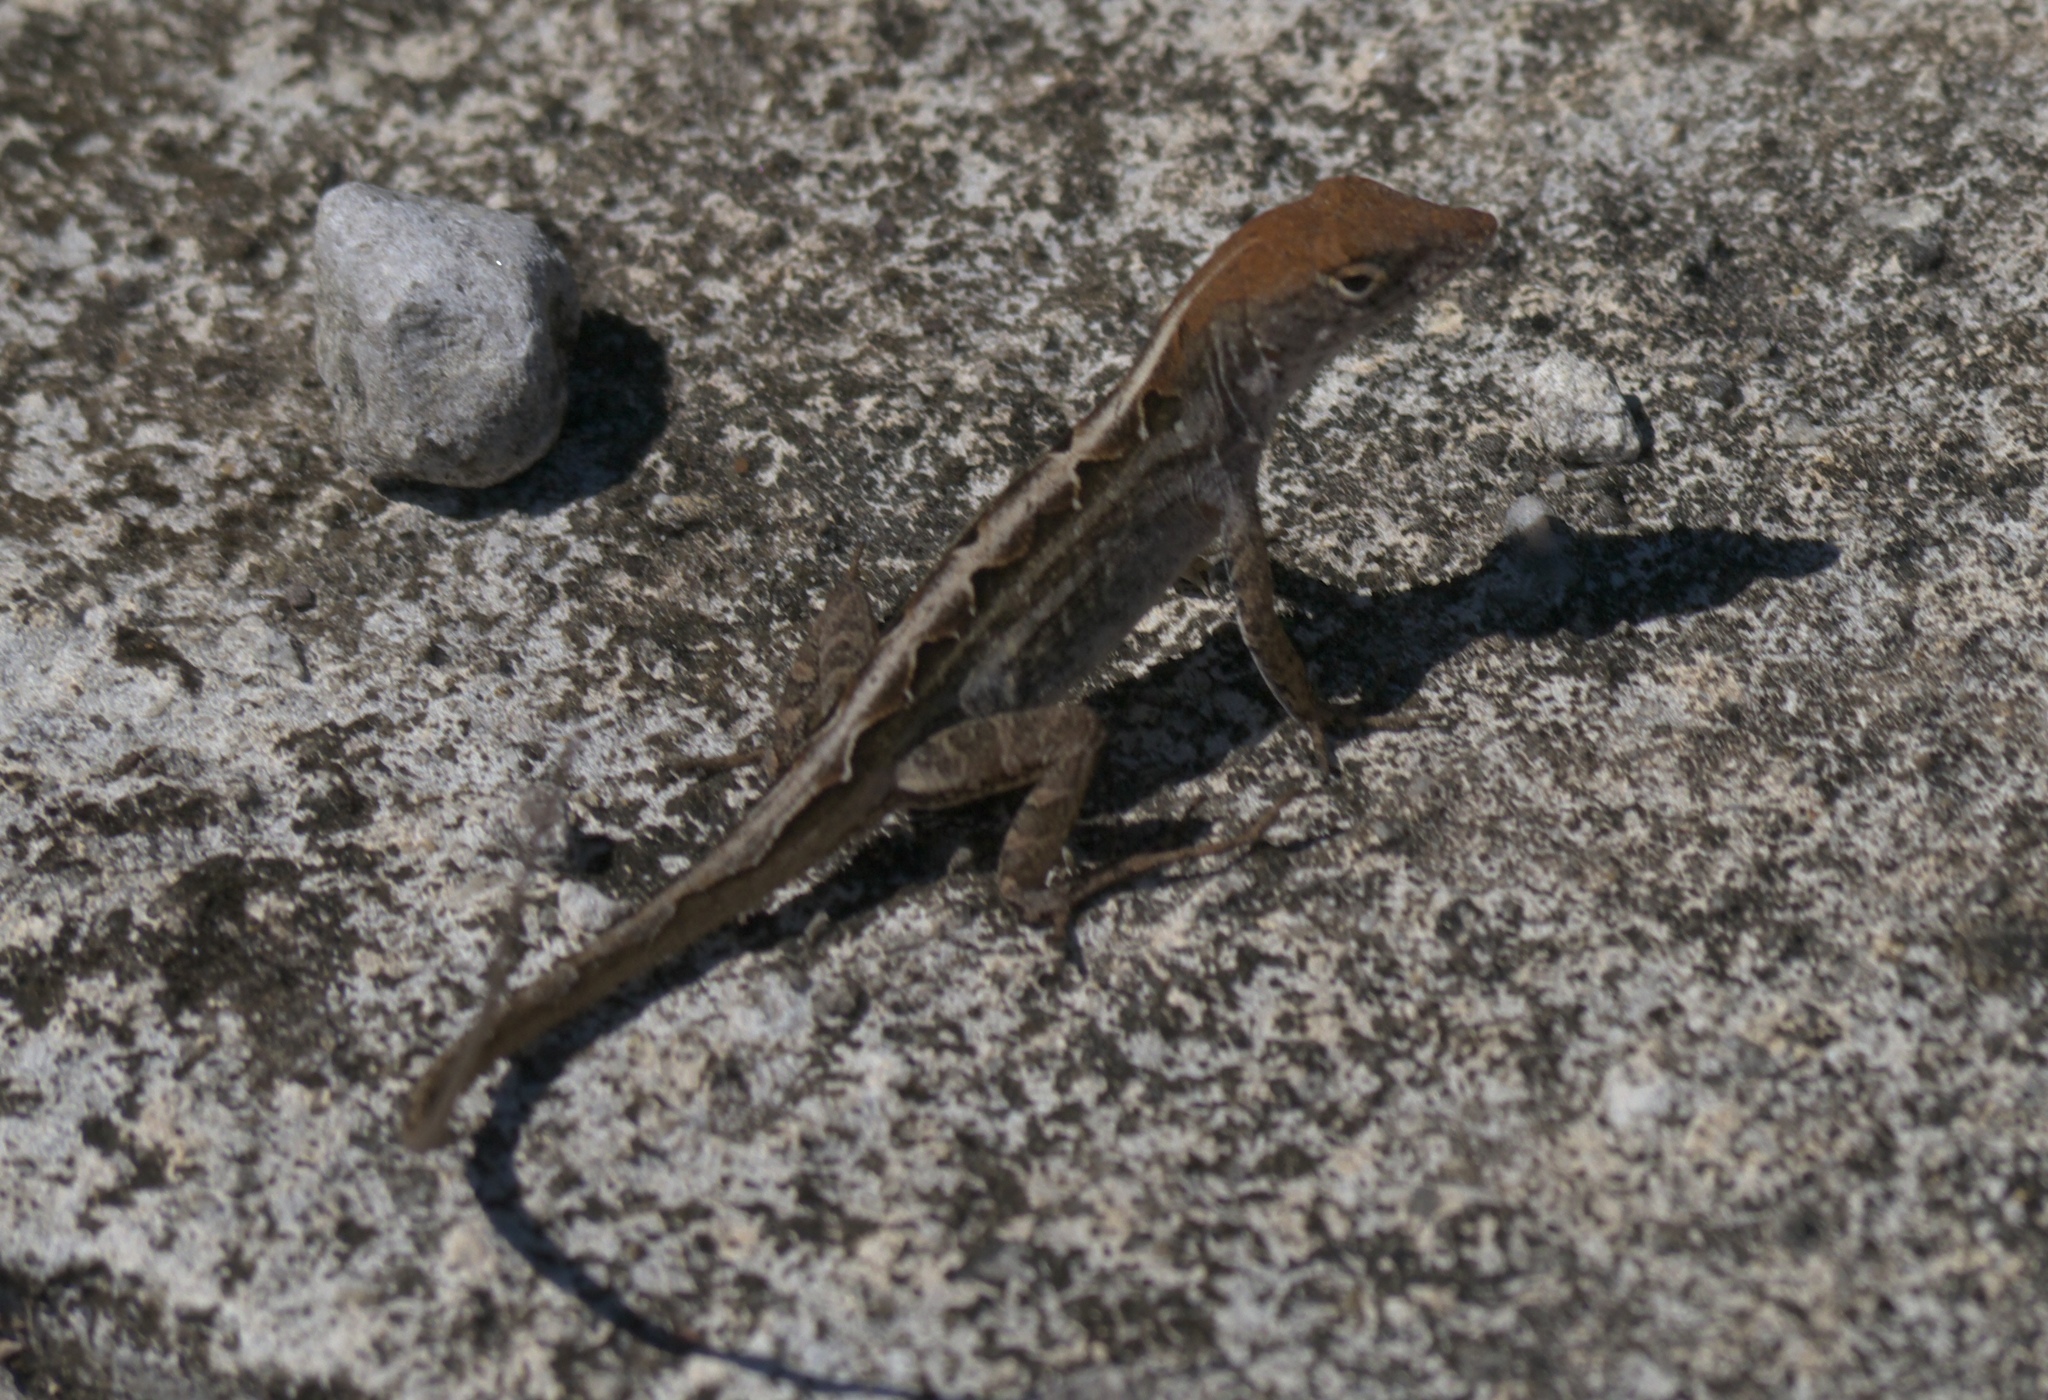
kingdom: Animalia
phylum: Chordata
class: Squamata
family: Dactyloidae
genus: Anolis
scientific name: Anolis sagrei
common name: Brown anole
